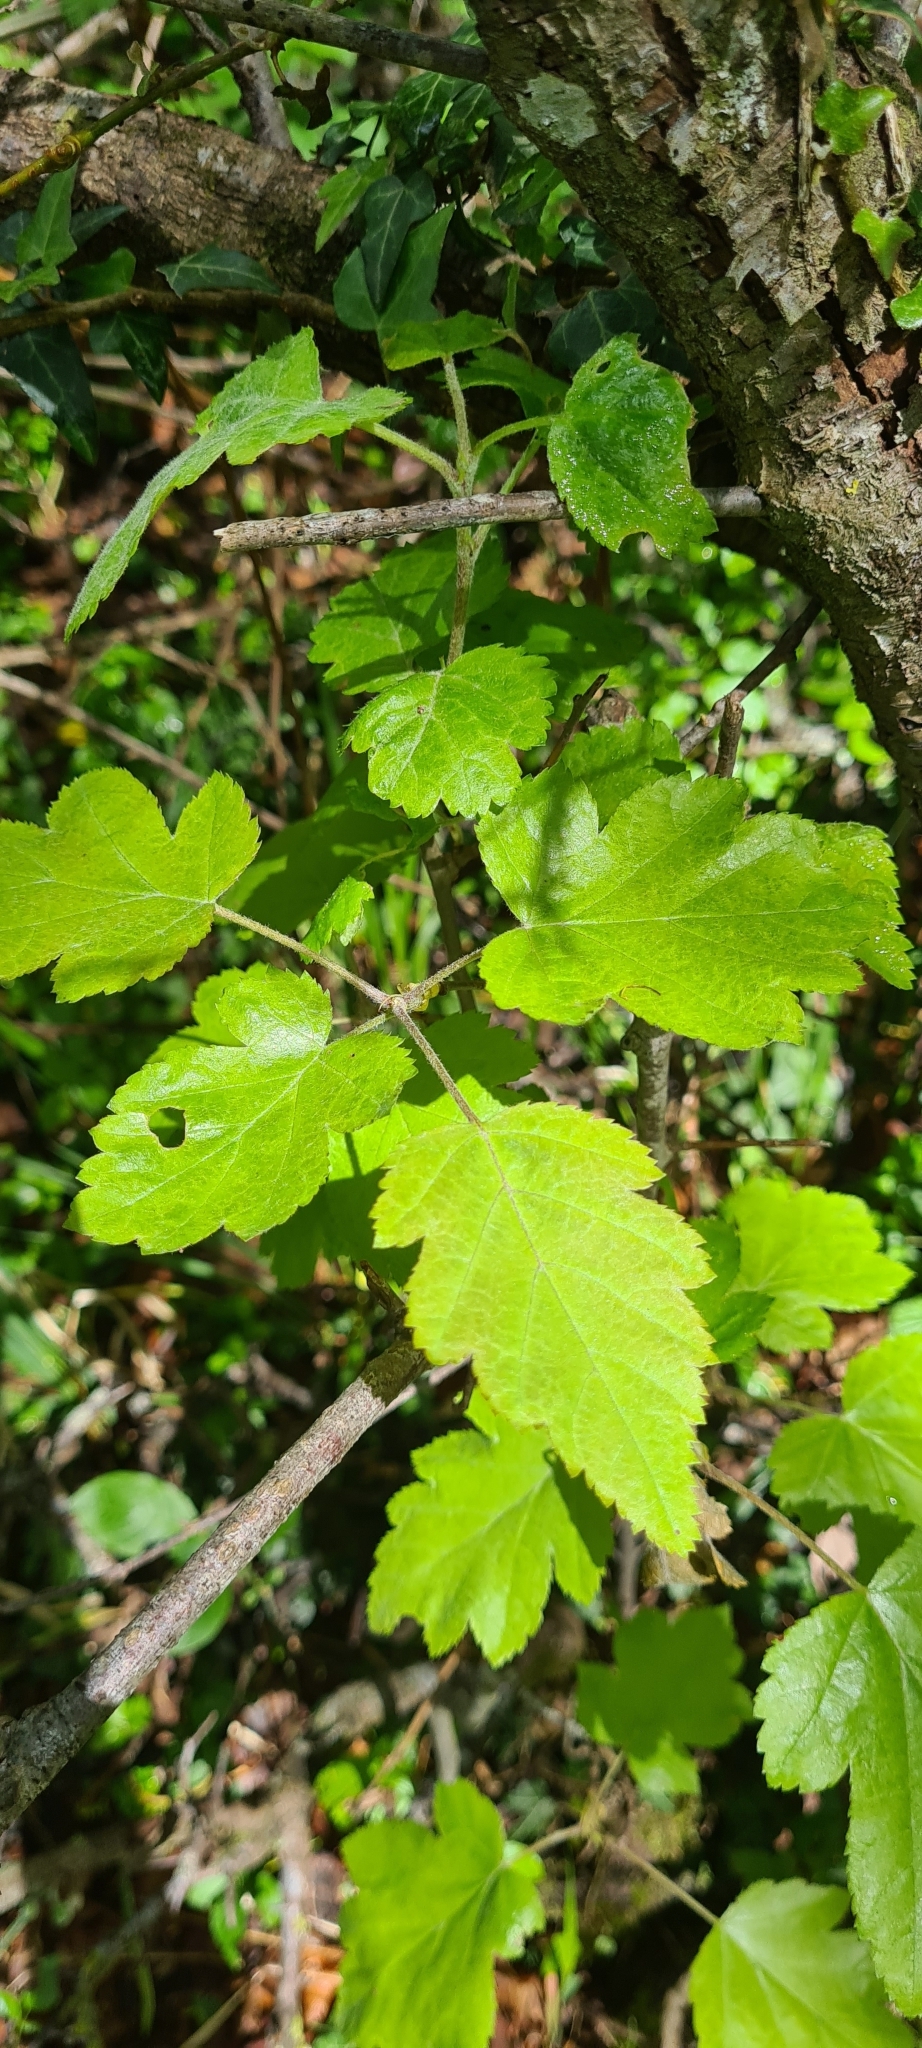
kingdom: Plantae
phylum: Tracheophyta
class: Magnoliopsida
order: Rosales
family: Rosaceae
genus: Torminalis
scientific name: Torminalis glaberrima
